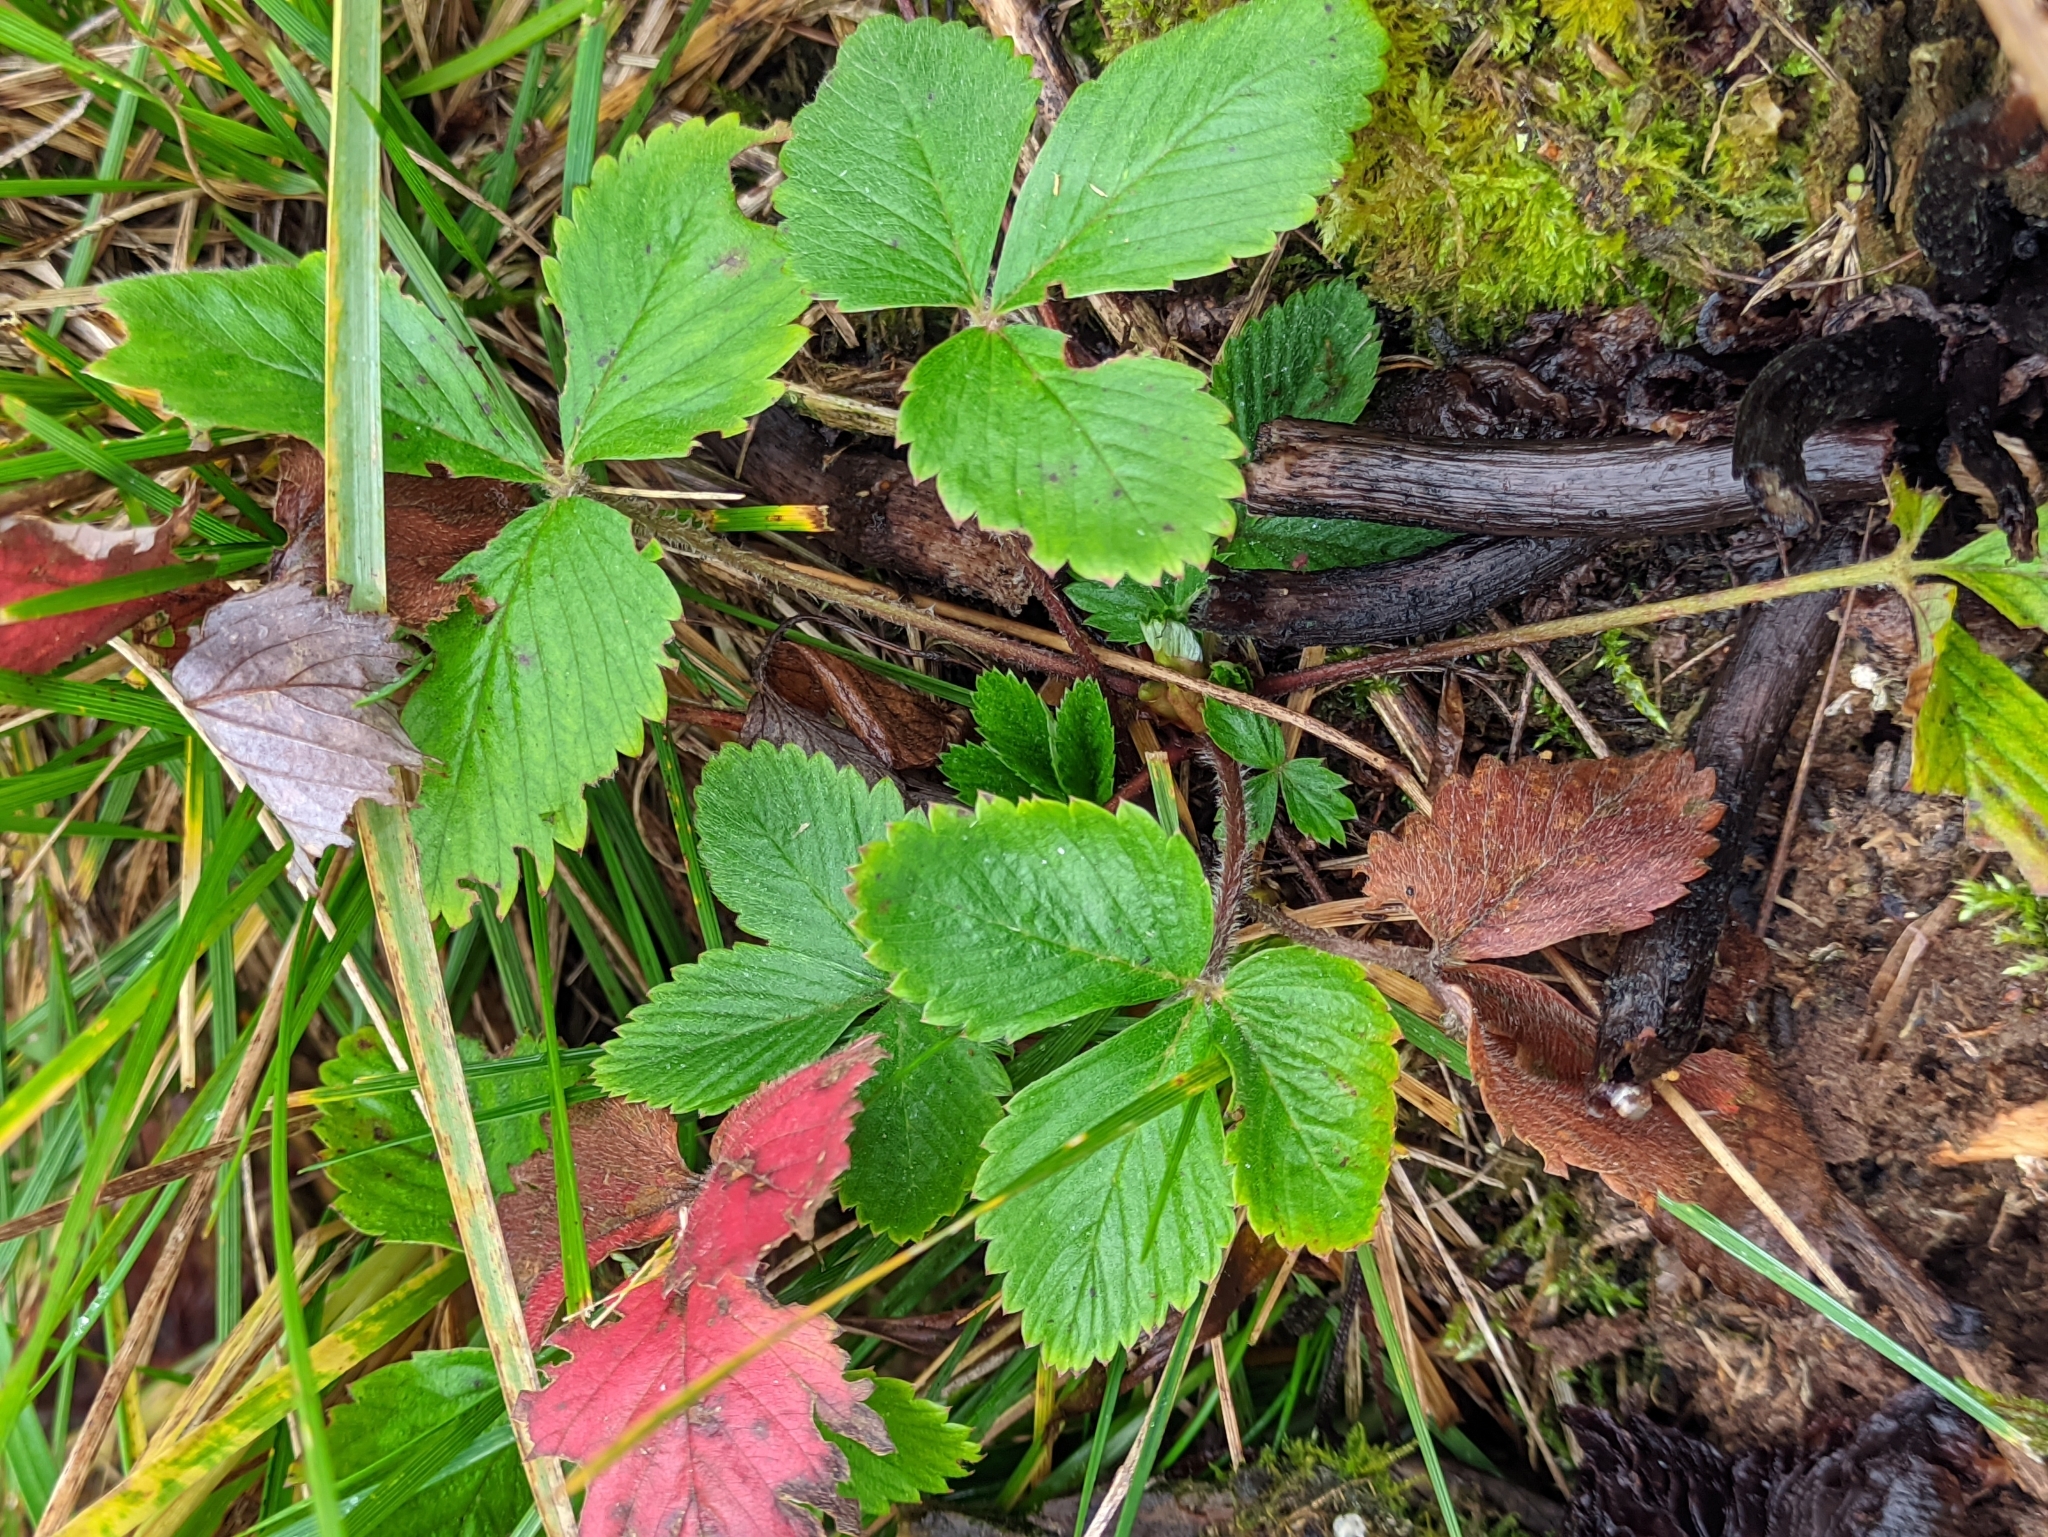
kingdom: Plantae
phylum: Tracheophyta
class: Magnoliopsida
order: Rosales
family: Rosaceae
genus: Fragaria
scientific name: Fragaria vesca
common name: Wild strawberry
